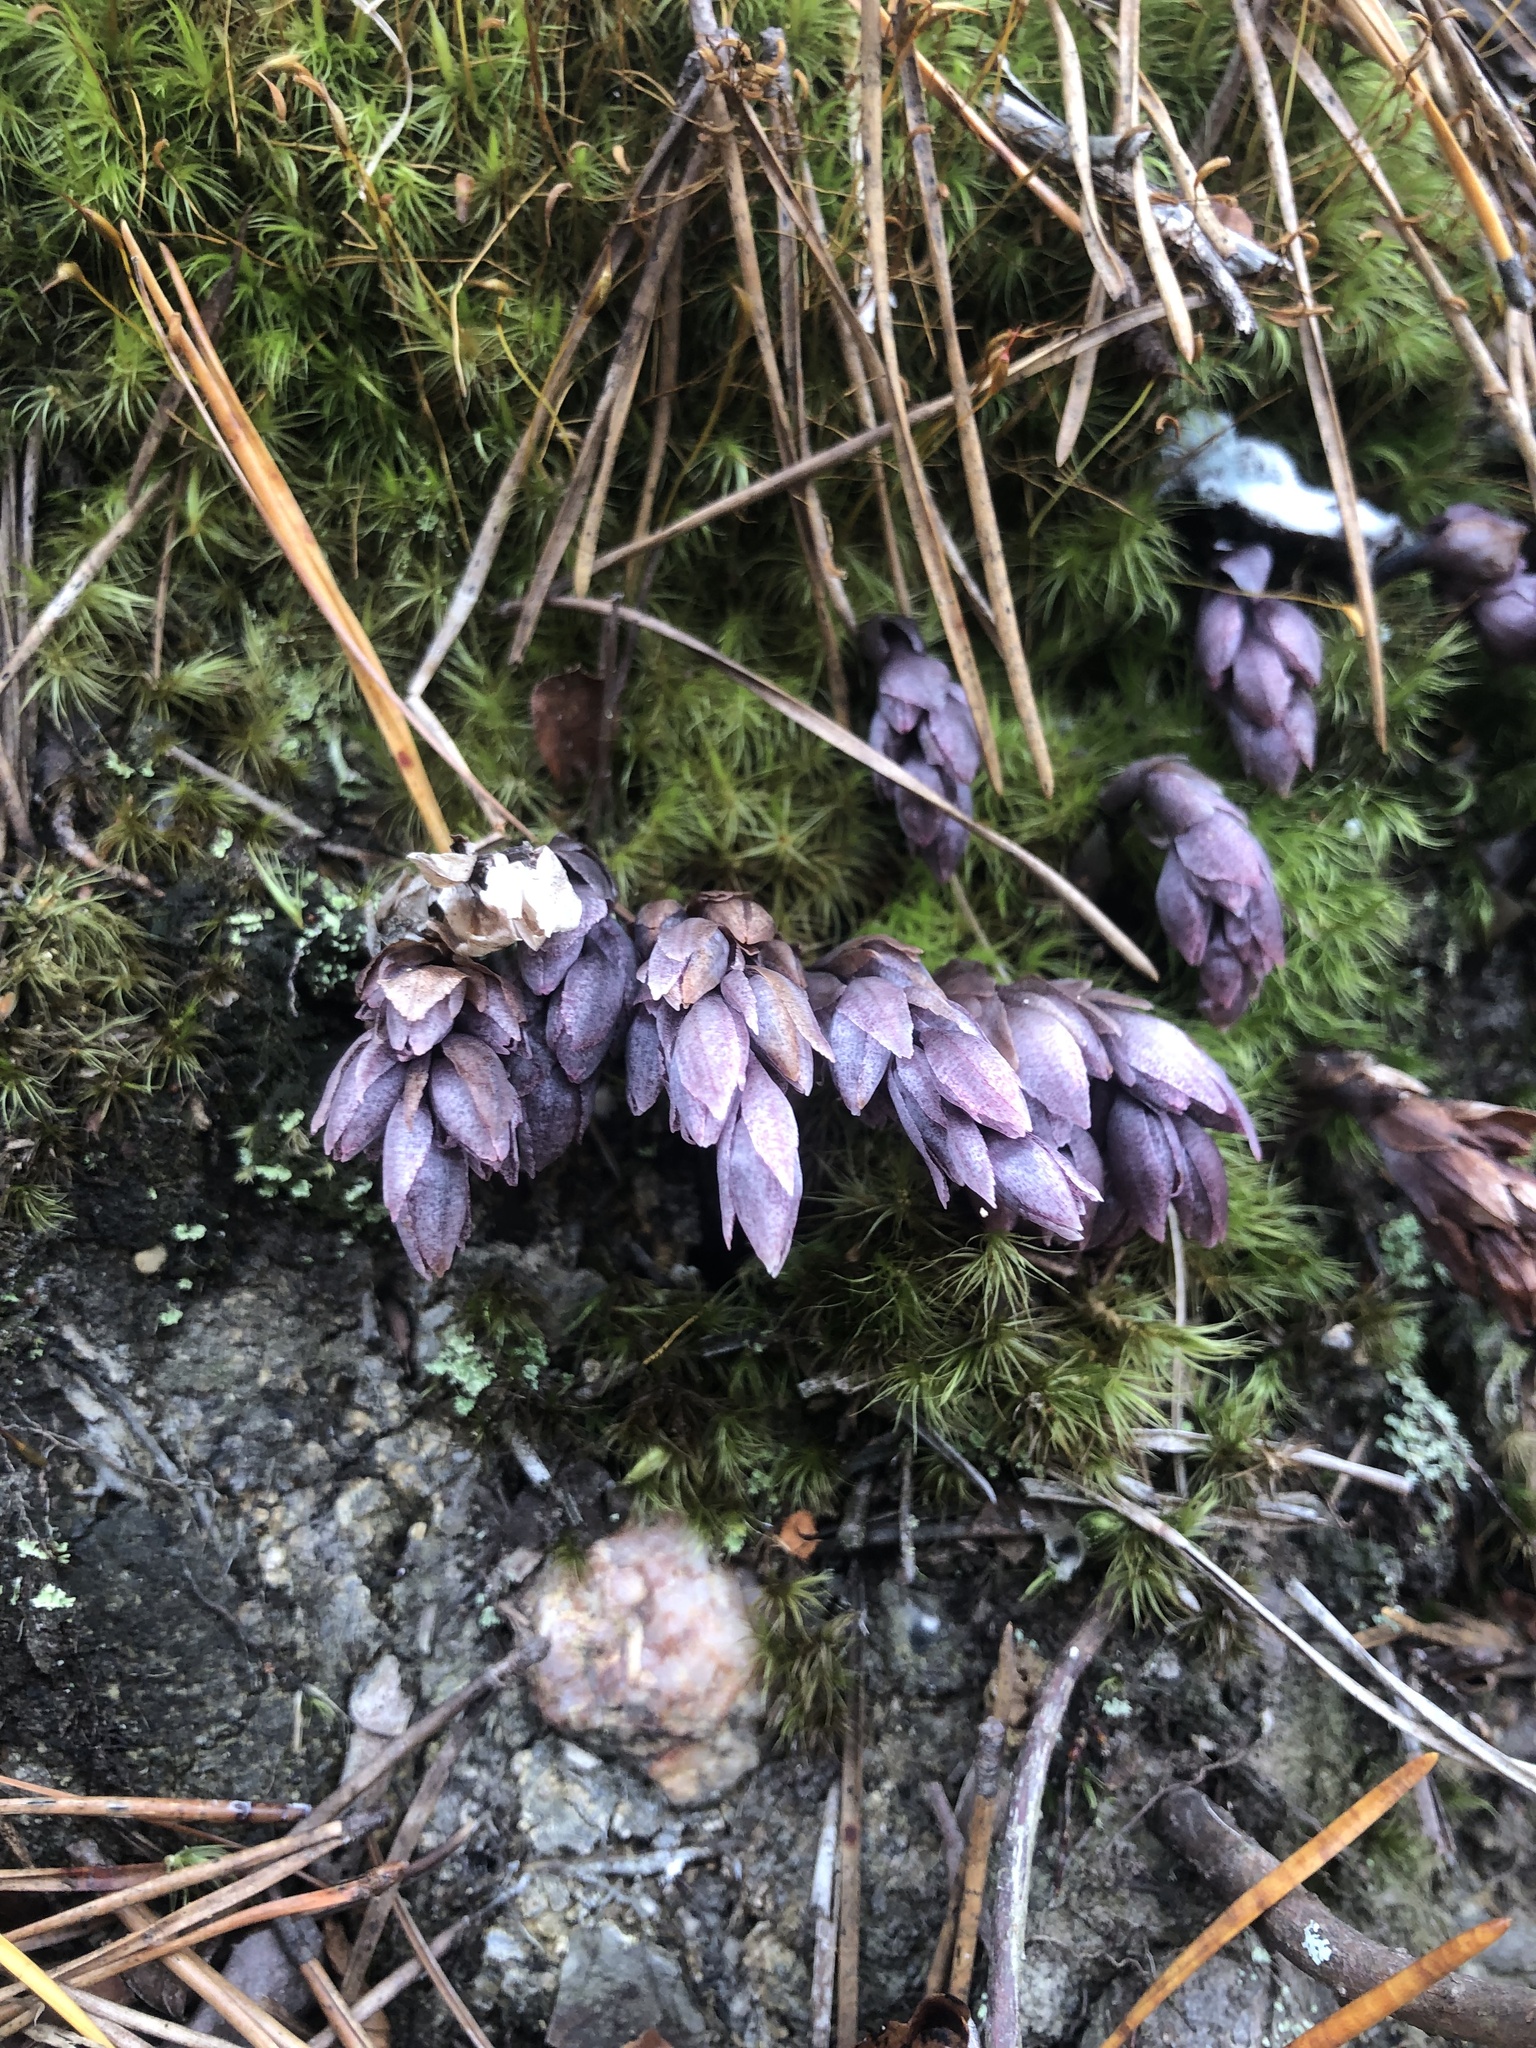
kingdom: Plantae
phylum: Tracheophyta
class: Magnoliopsida
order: Ericales
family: Ericaceae
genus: Monotropsis
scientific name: Monotropsis odorata
